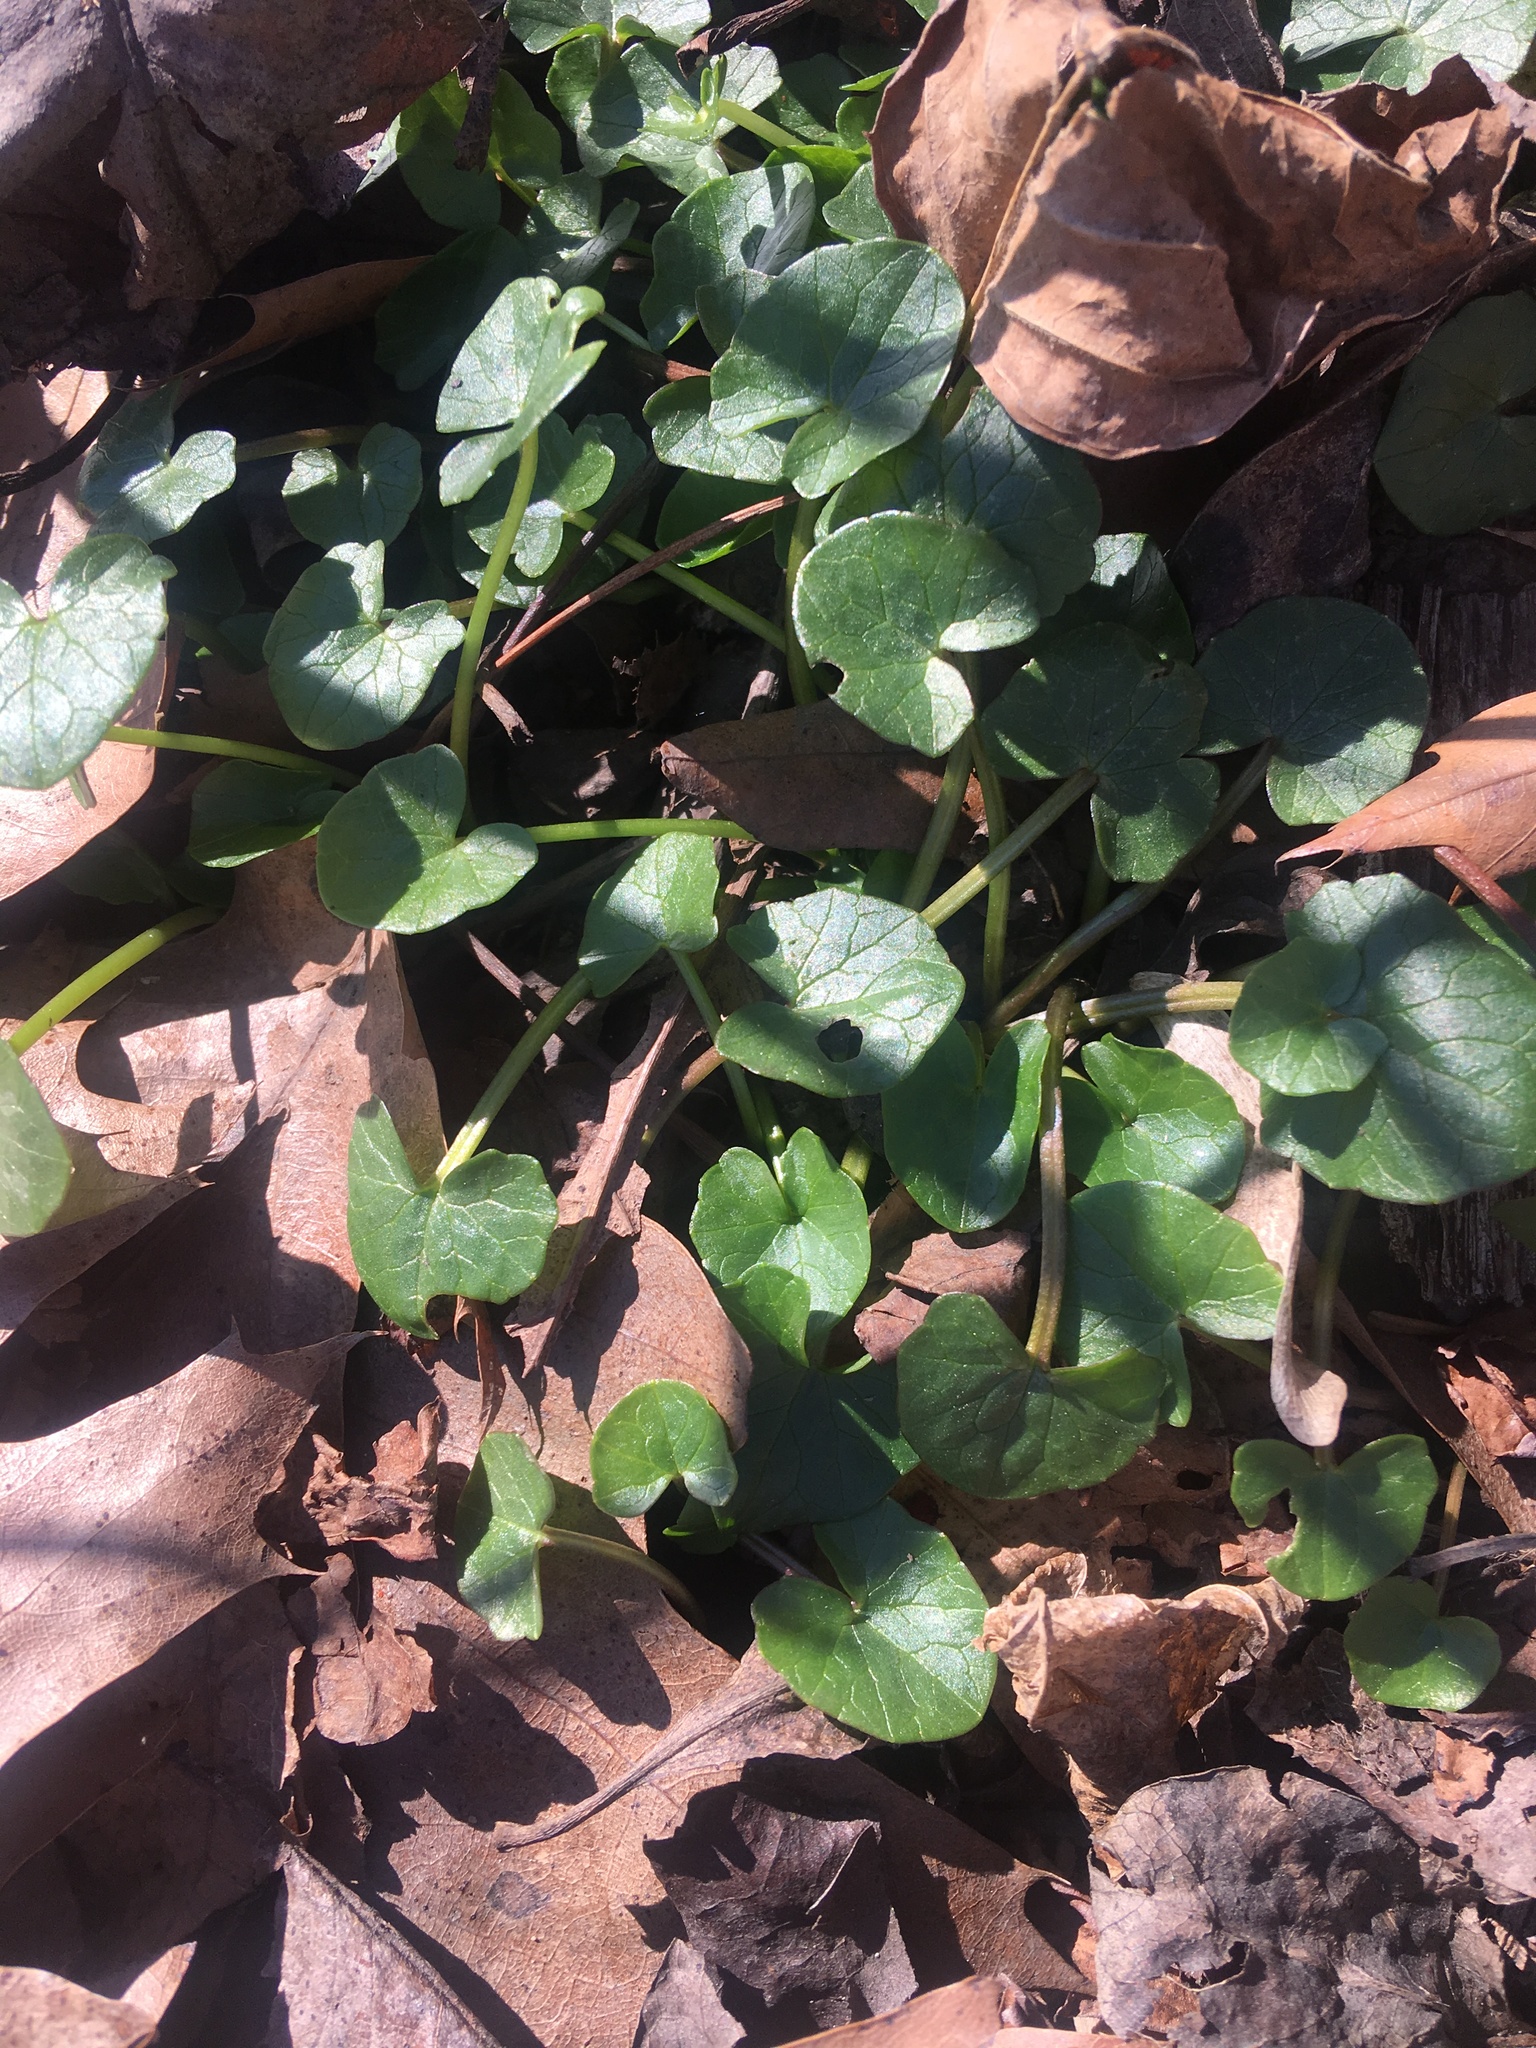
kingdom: Plantae
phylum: Tracheophyta
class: Magnoliopsida
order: Ranunculales
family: Ranunculaceae
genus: Ficaria
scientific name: Ficaria verna
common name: Lesser celandine
